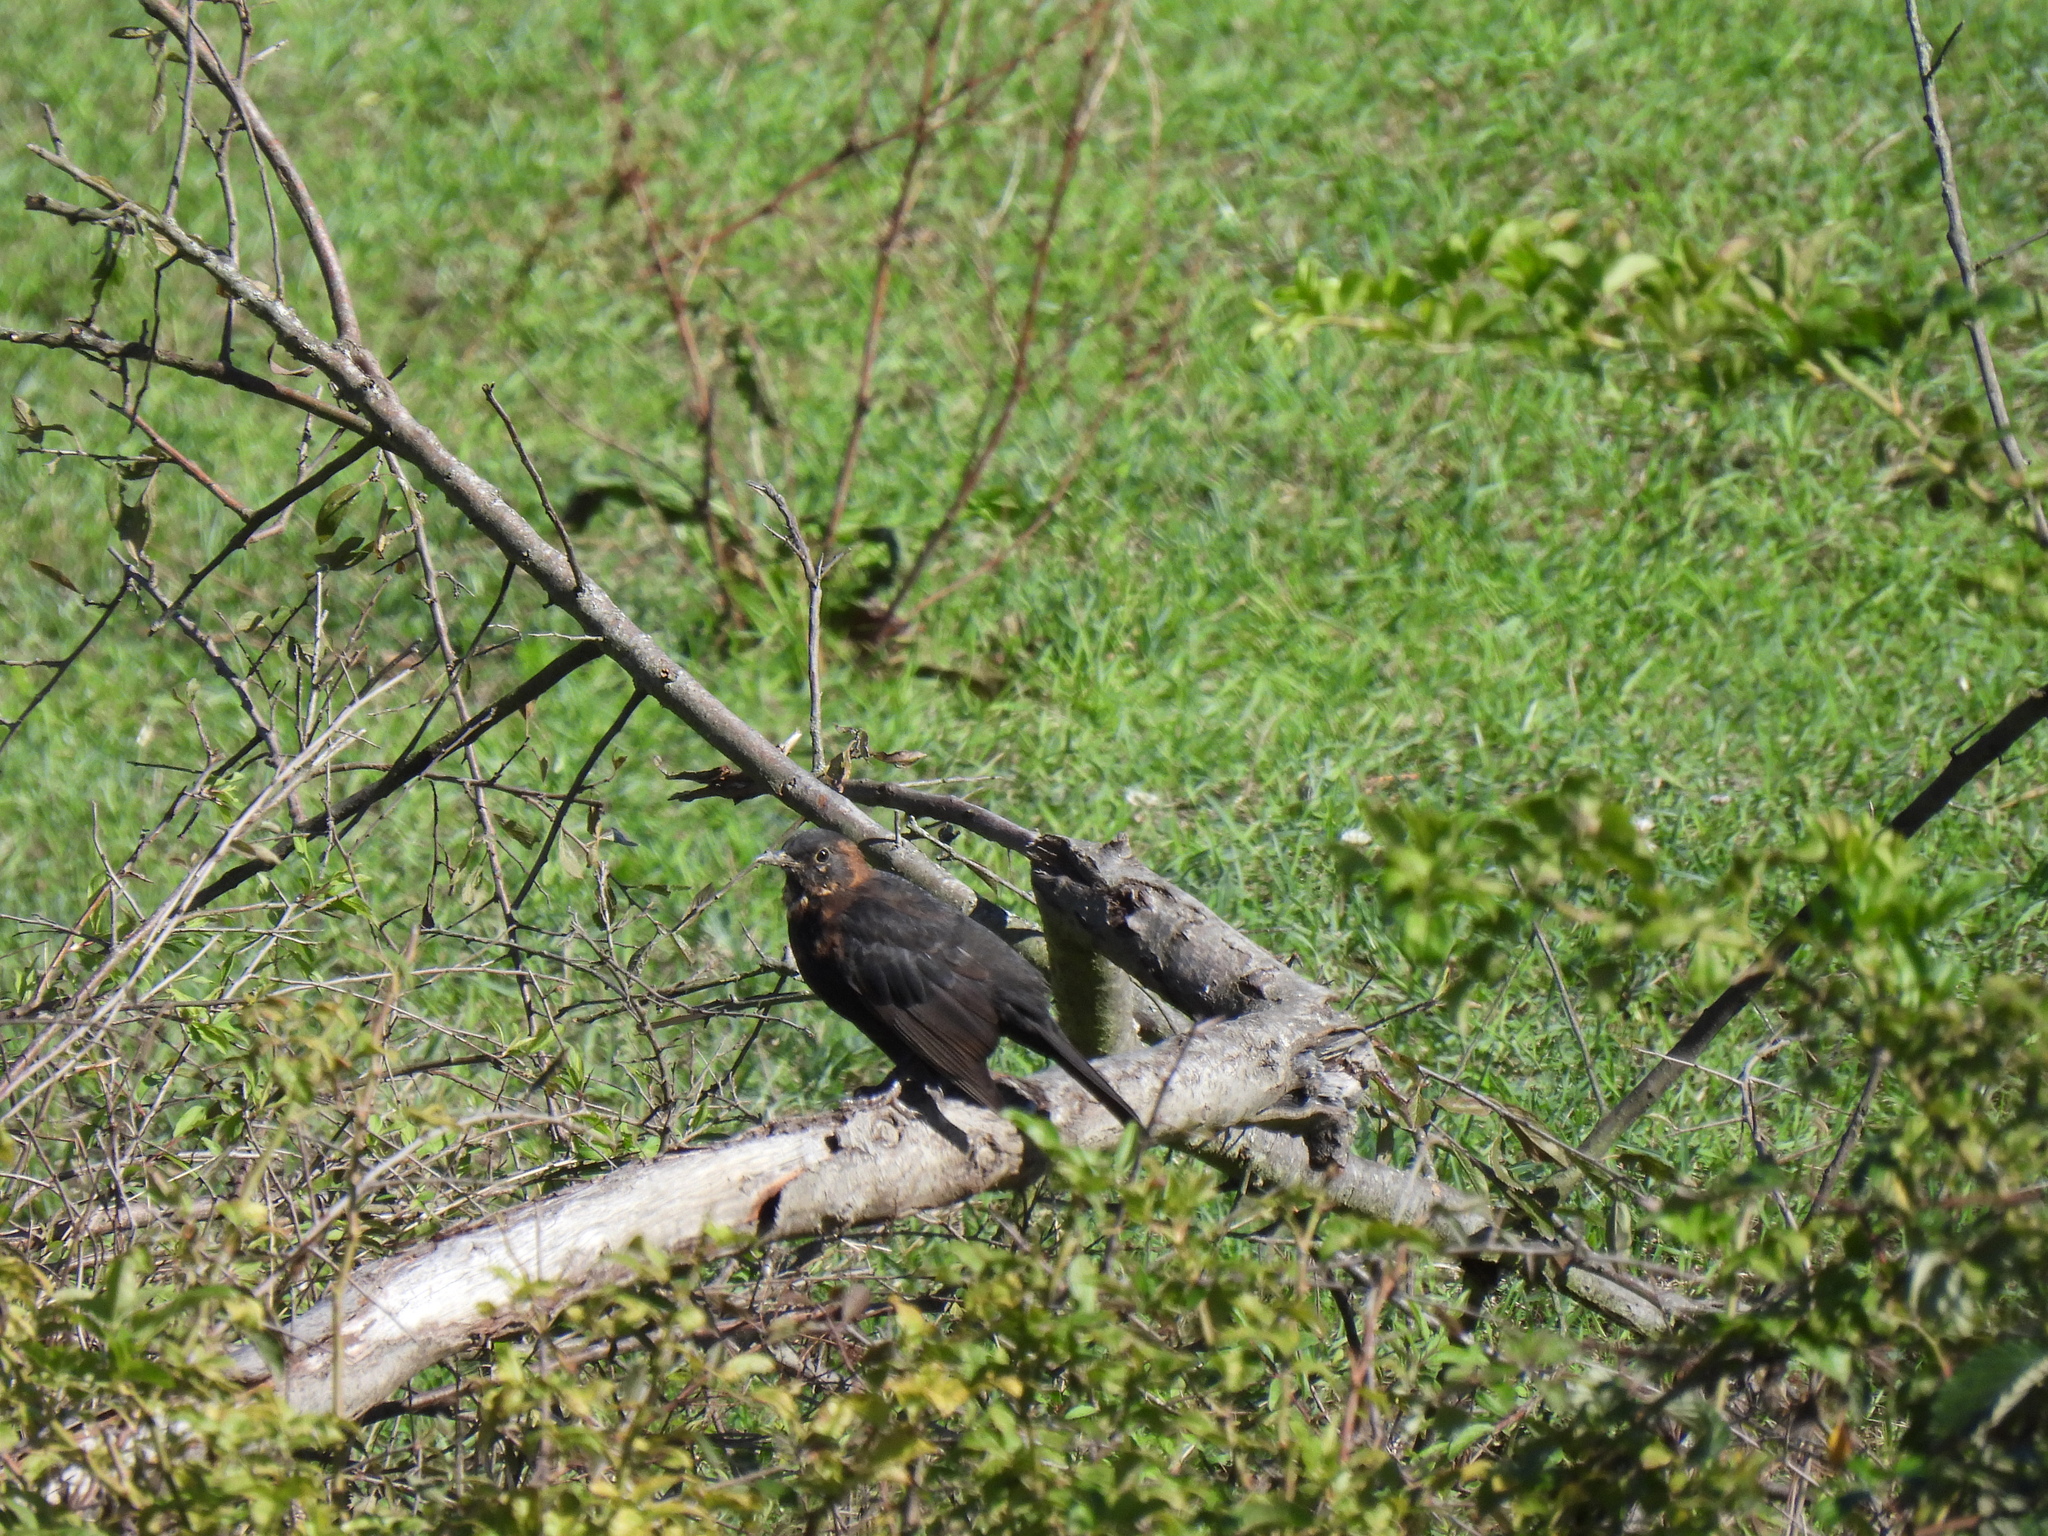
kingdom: Animalia
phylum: Chordata
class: Aves
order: Passeriformes
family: Turdidae
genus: Turdus
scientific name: Turdus merula
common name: Common blackbird
